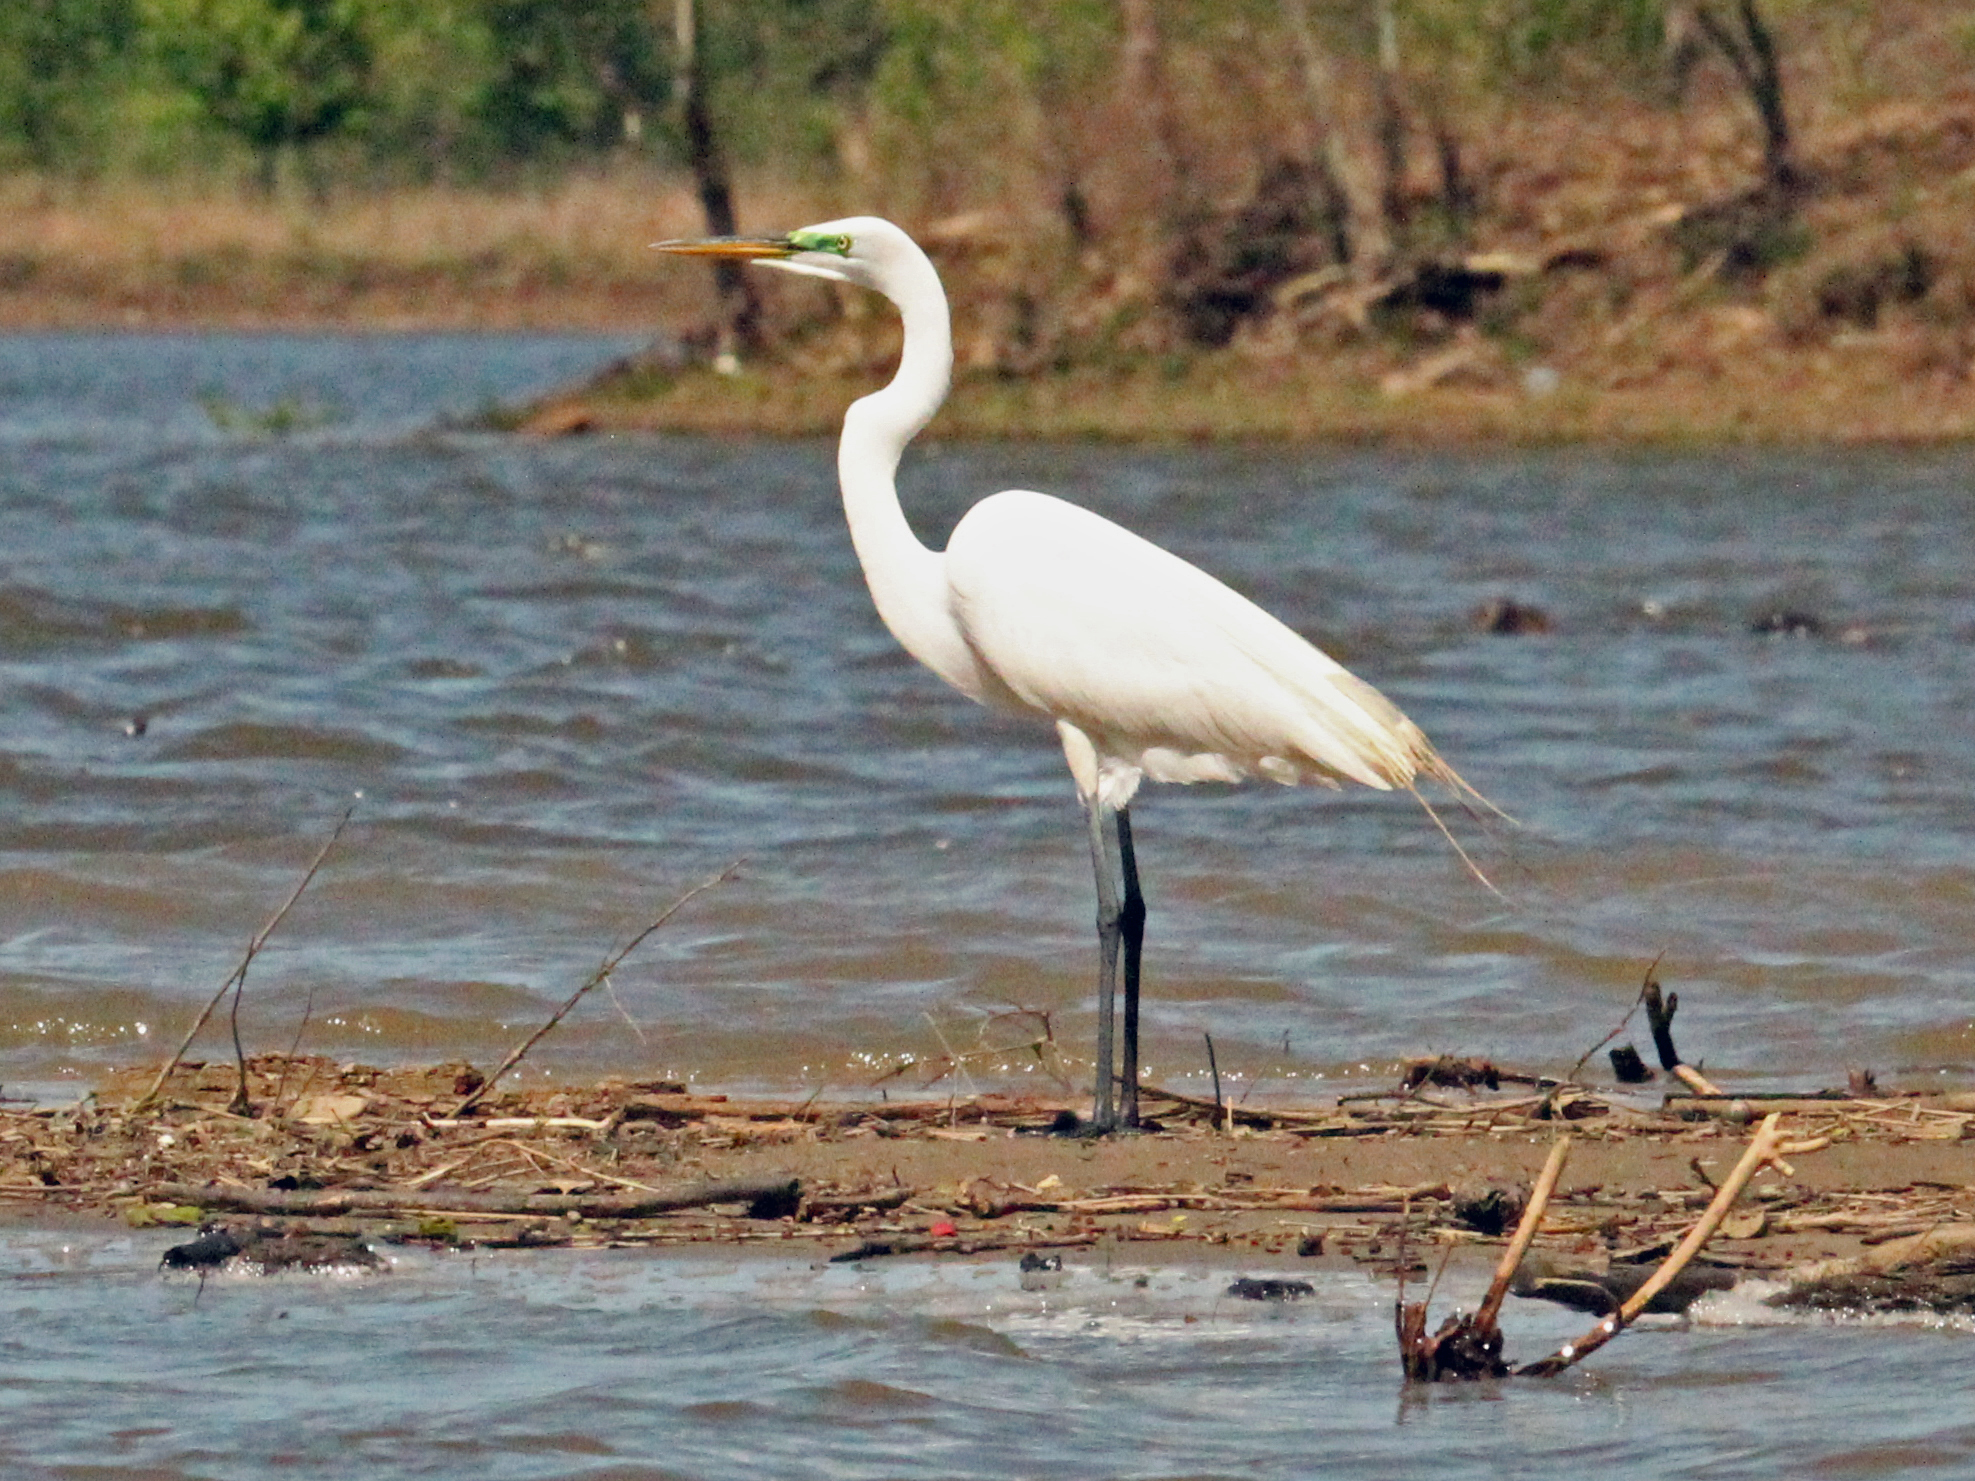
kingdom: Animalia
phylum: Chordata
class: Aves
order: Pelecaniformes
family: Ardeidae
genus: Ardea
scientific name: Ardea alba
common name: Great egret
